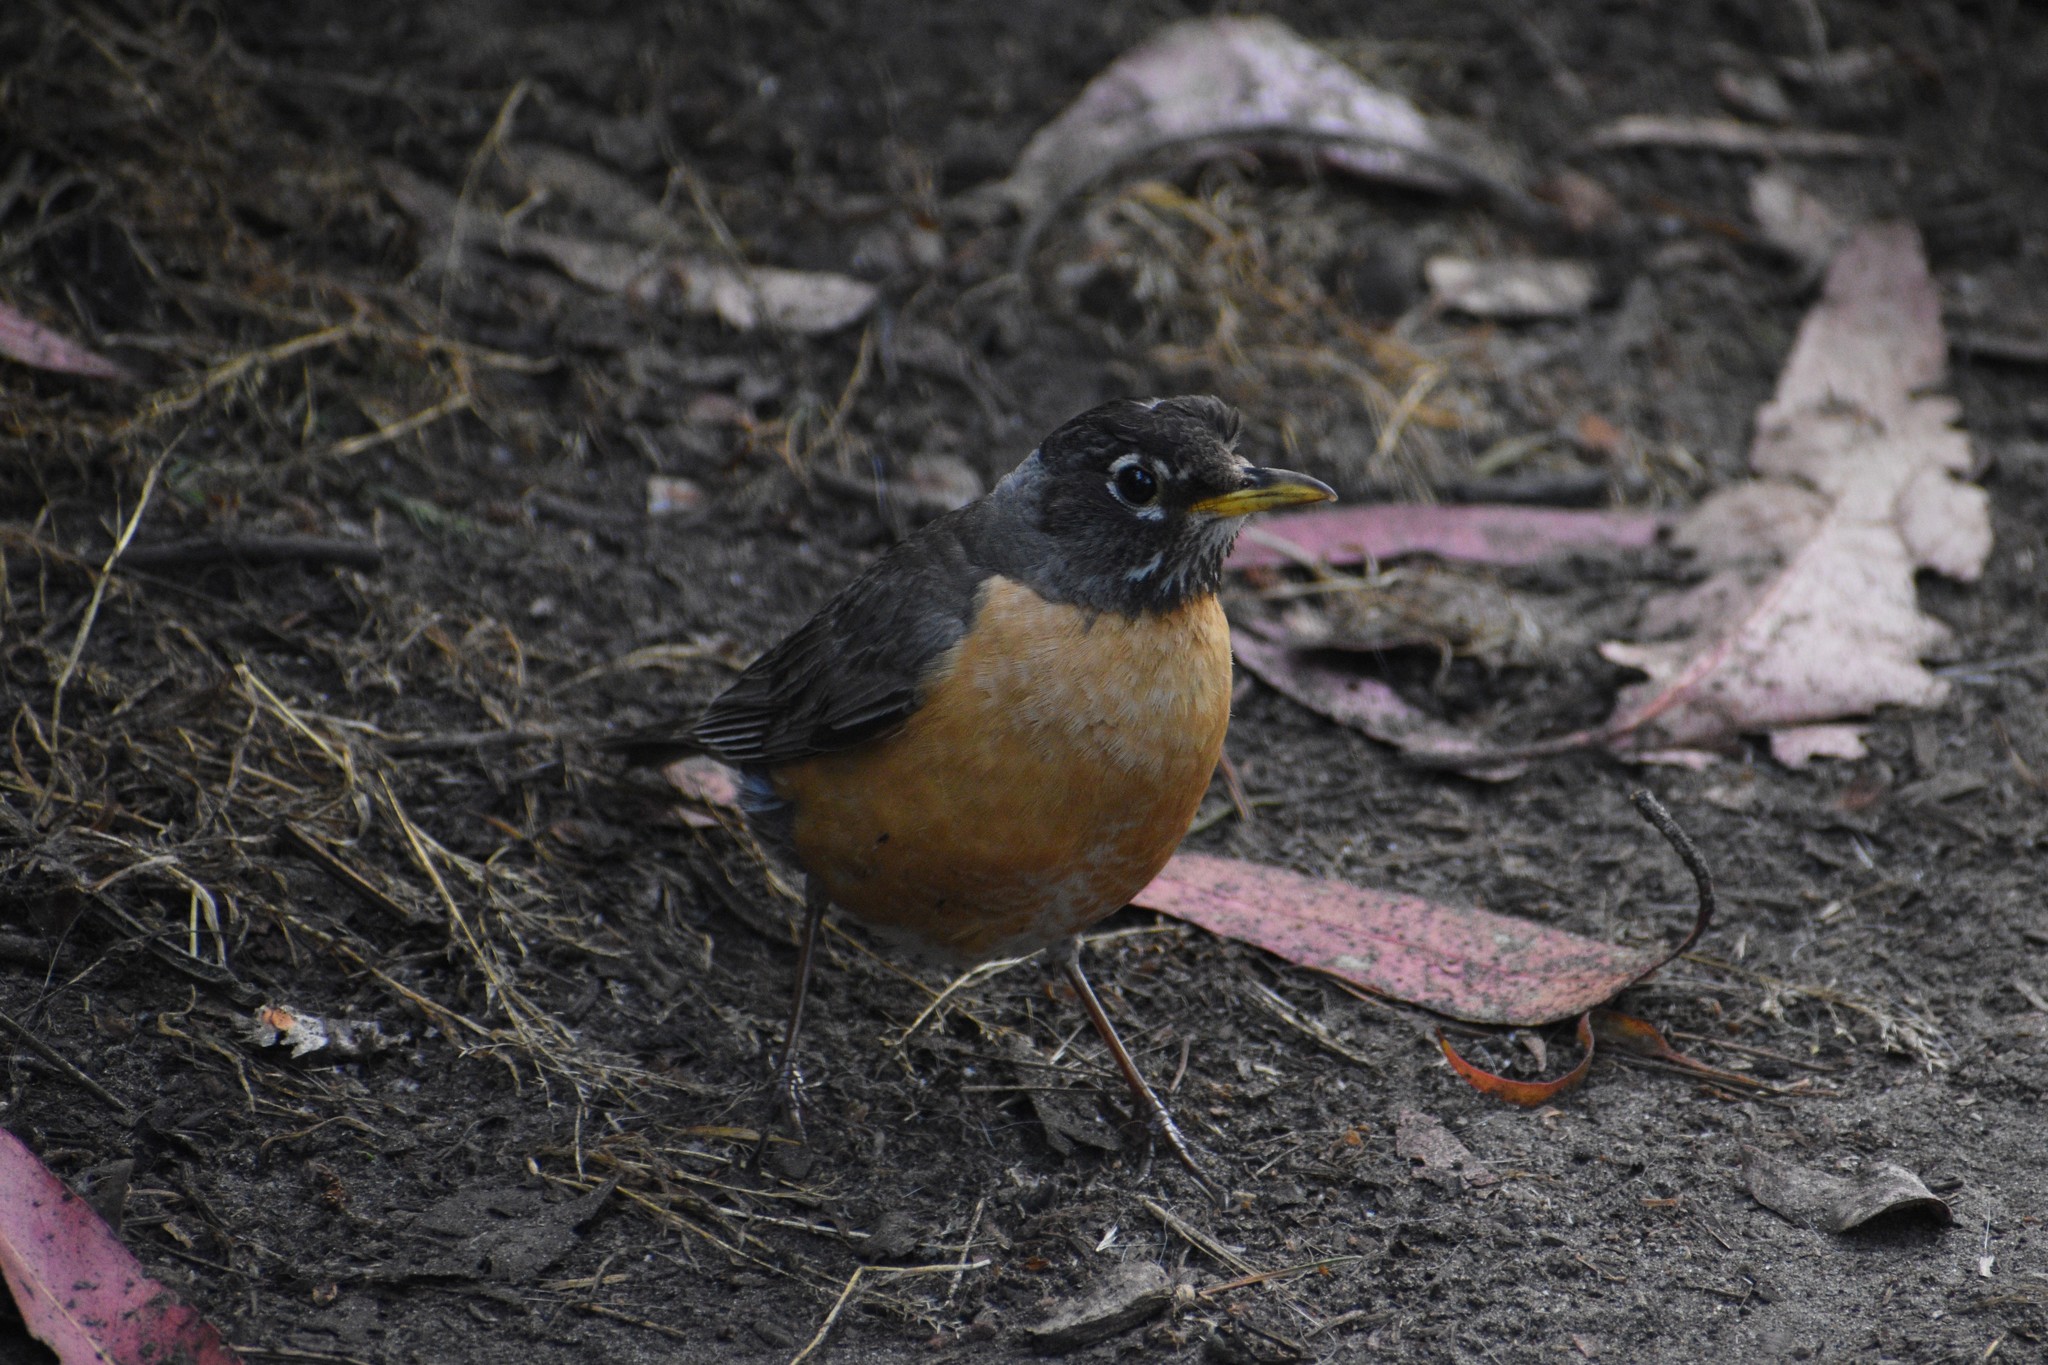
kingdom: Animalia
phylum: Chordata
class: Aves
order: Passeriformes
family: Turdidae
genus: Turdus
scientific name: Turdus migratorius
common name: American robin
